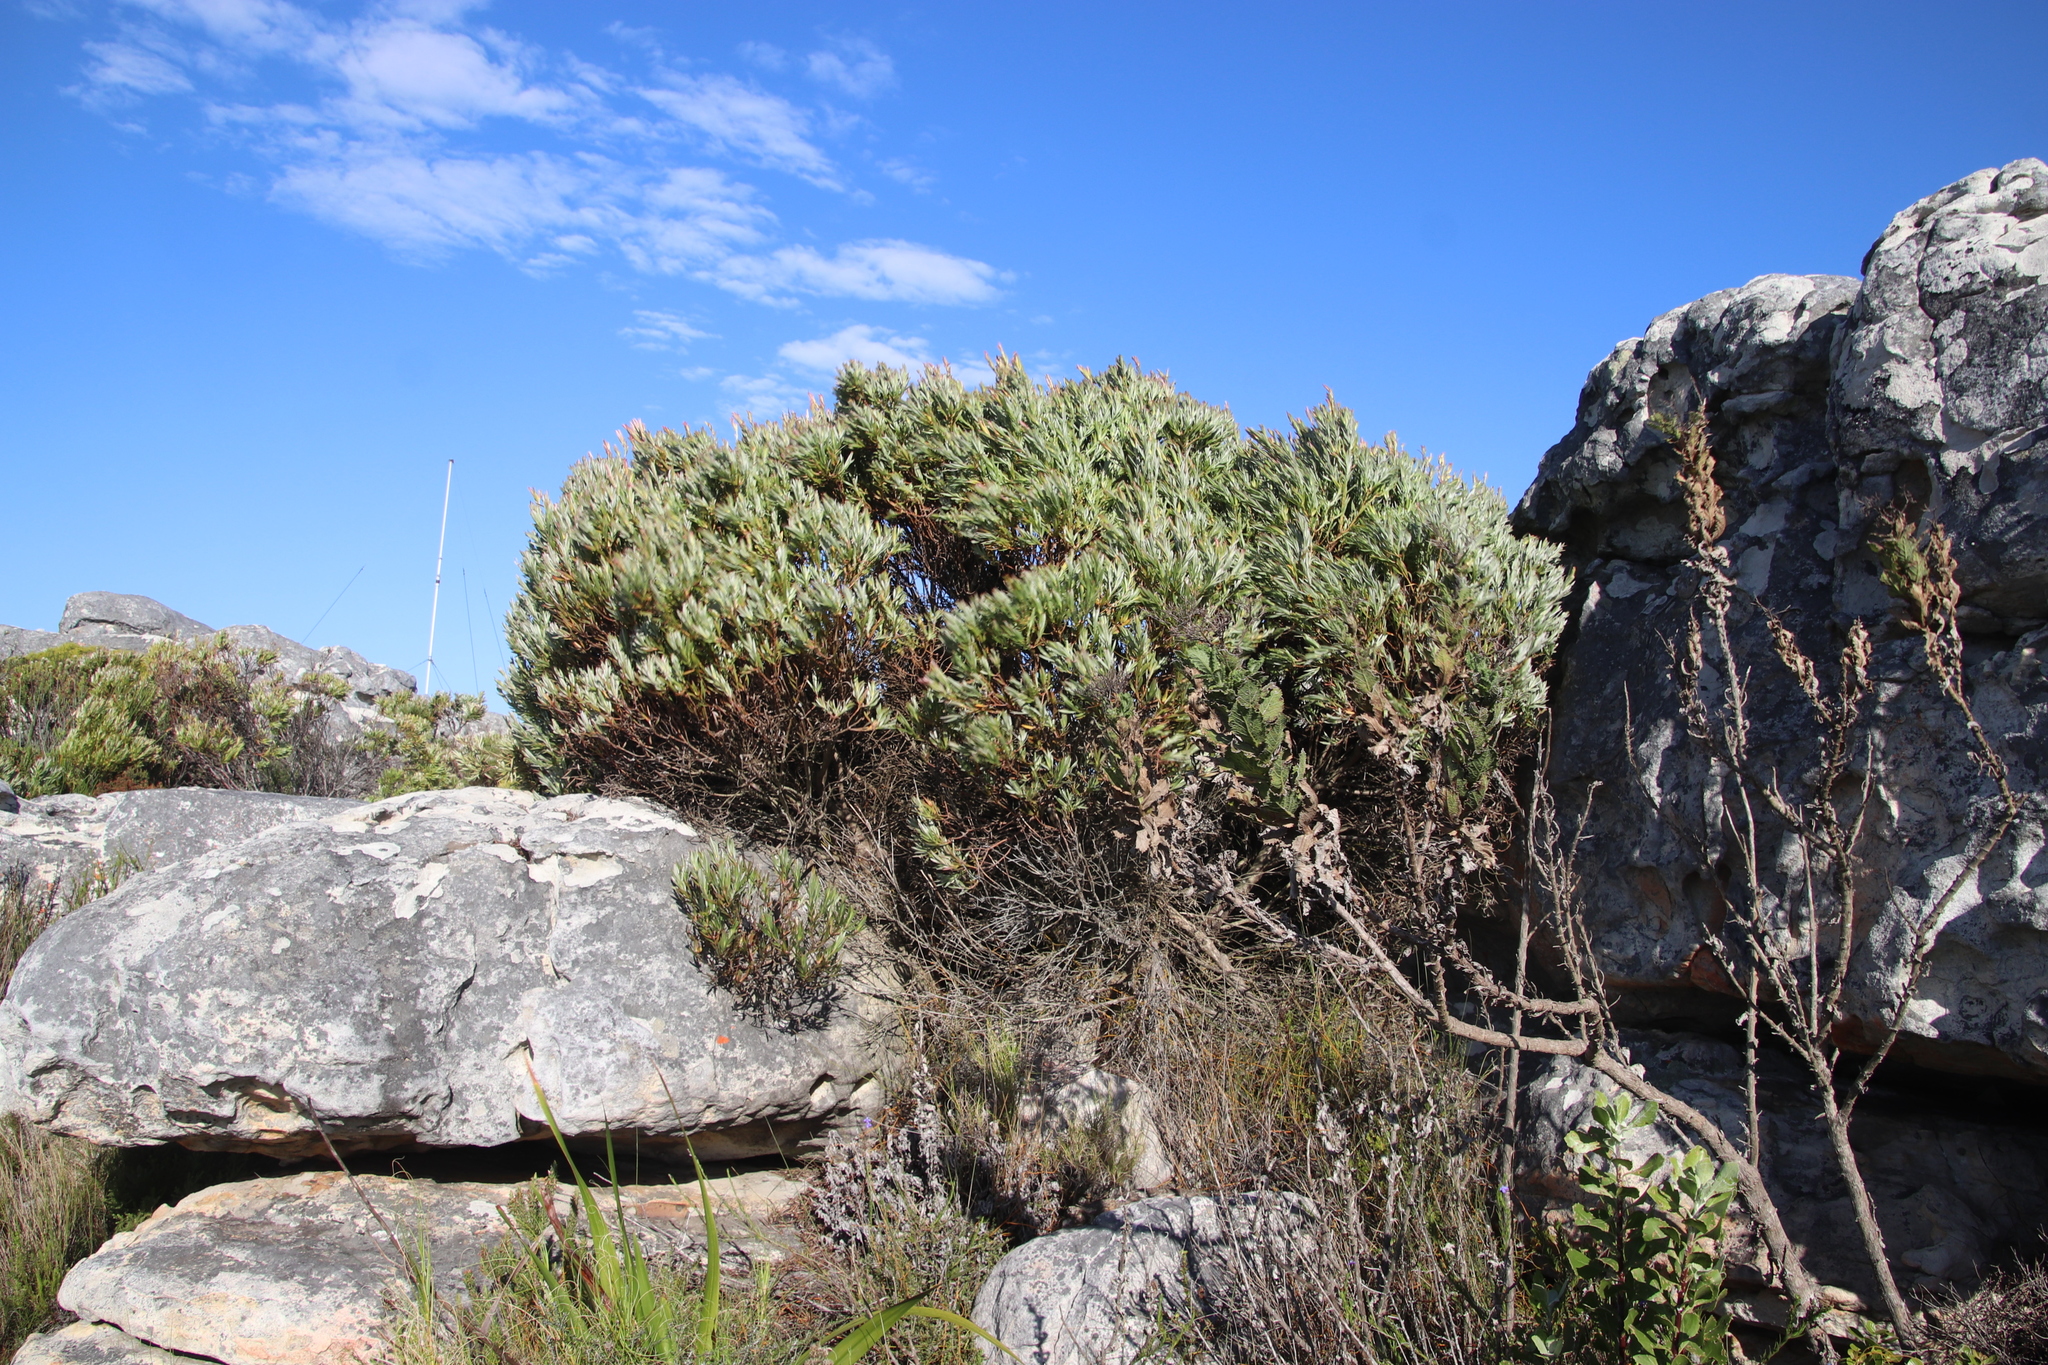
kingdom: Plantae
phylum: Tracheophyta
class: Magnoliopsida
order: Proteales
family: Proteaceae
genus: Leucadendron
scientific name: Leucadendron xanthoconus
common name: Sickle-leaf conebush
